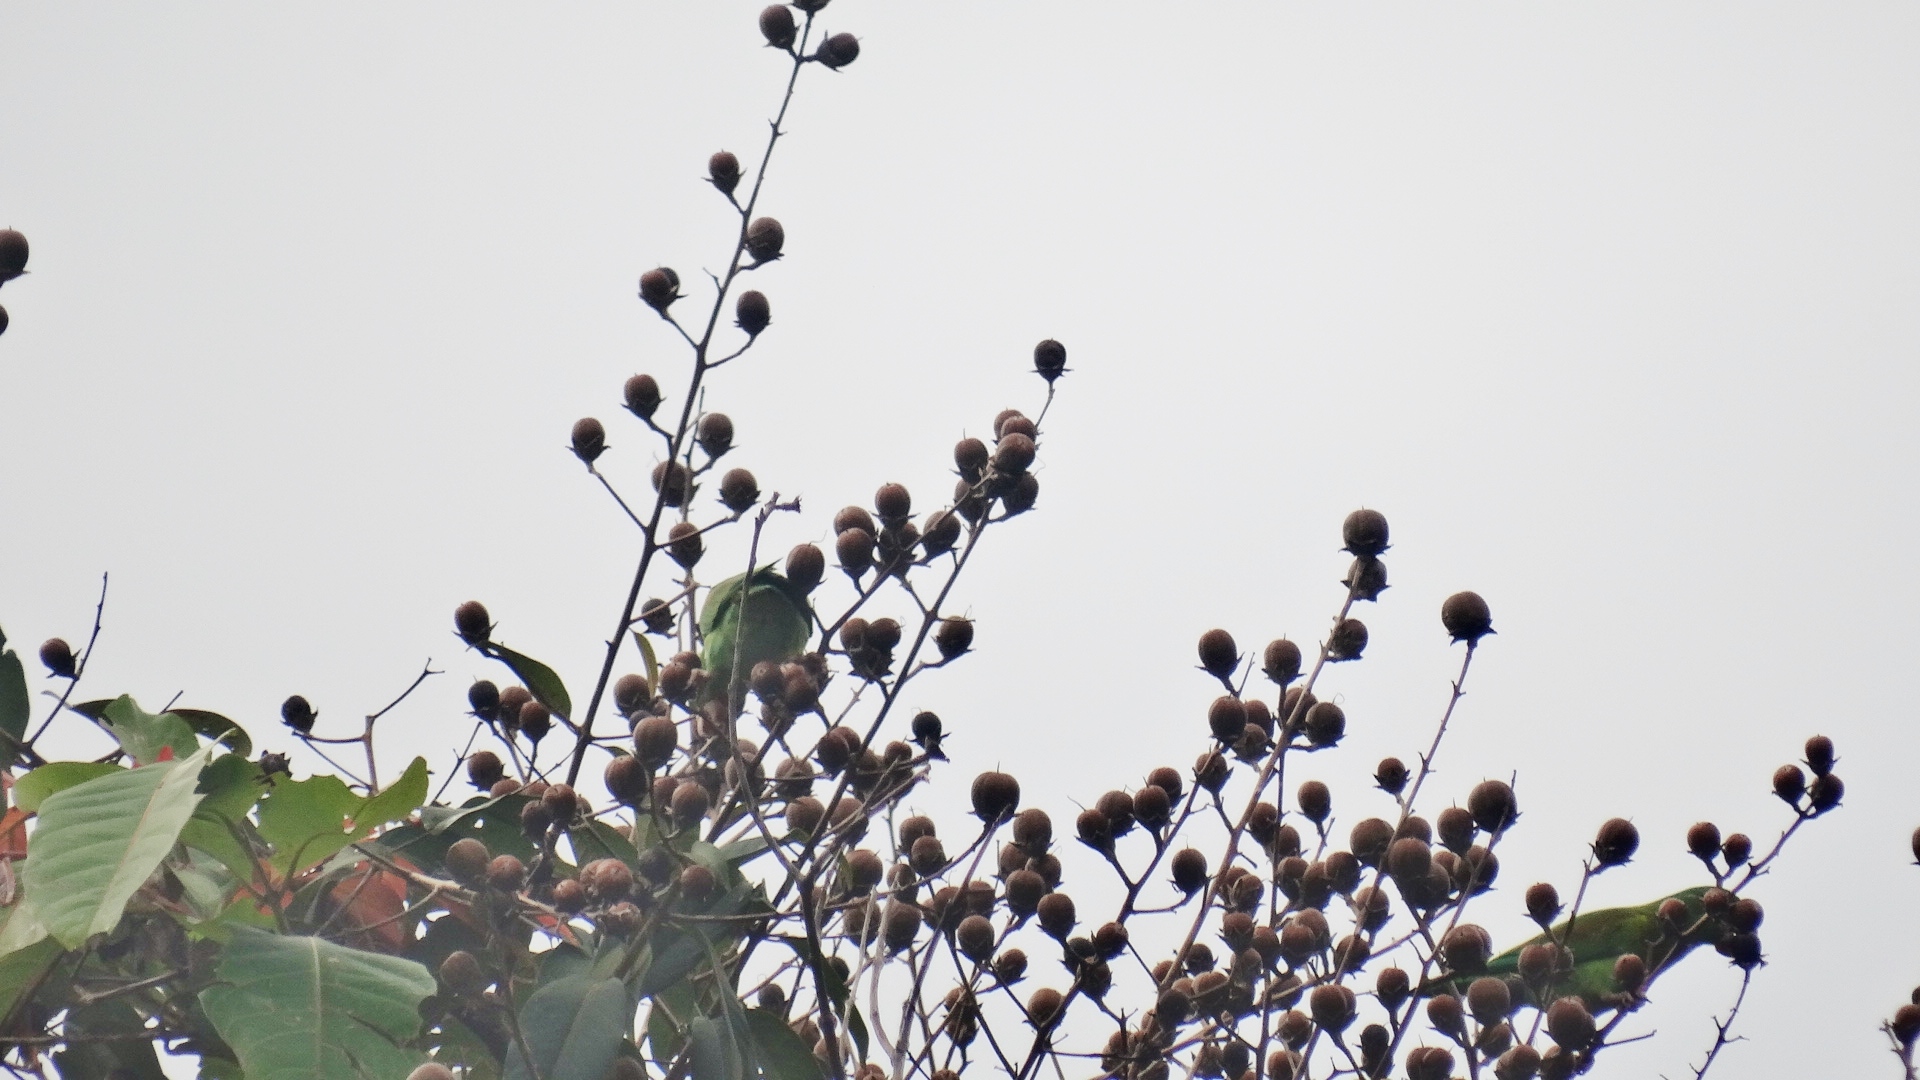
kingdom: Animalia
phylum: Chordata
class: Aves
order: Psittaciformes
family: Psittacidae
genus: Brotogeris
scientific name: Brotogeris jugularis
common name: Orange-chinned parakeet
